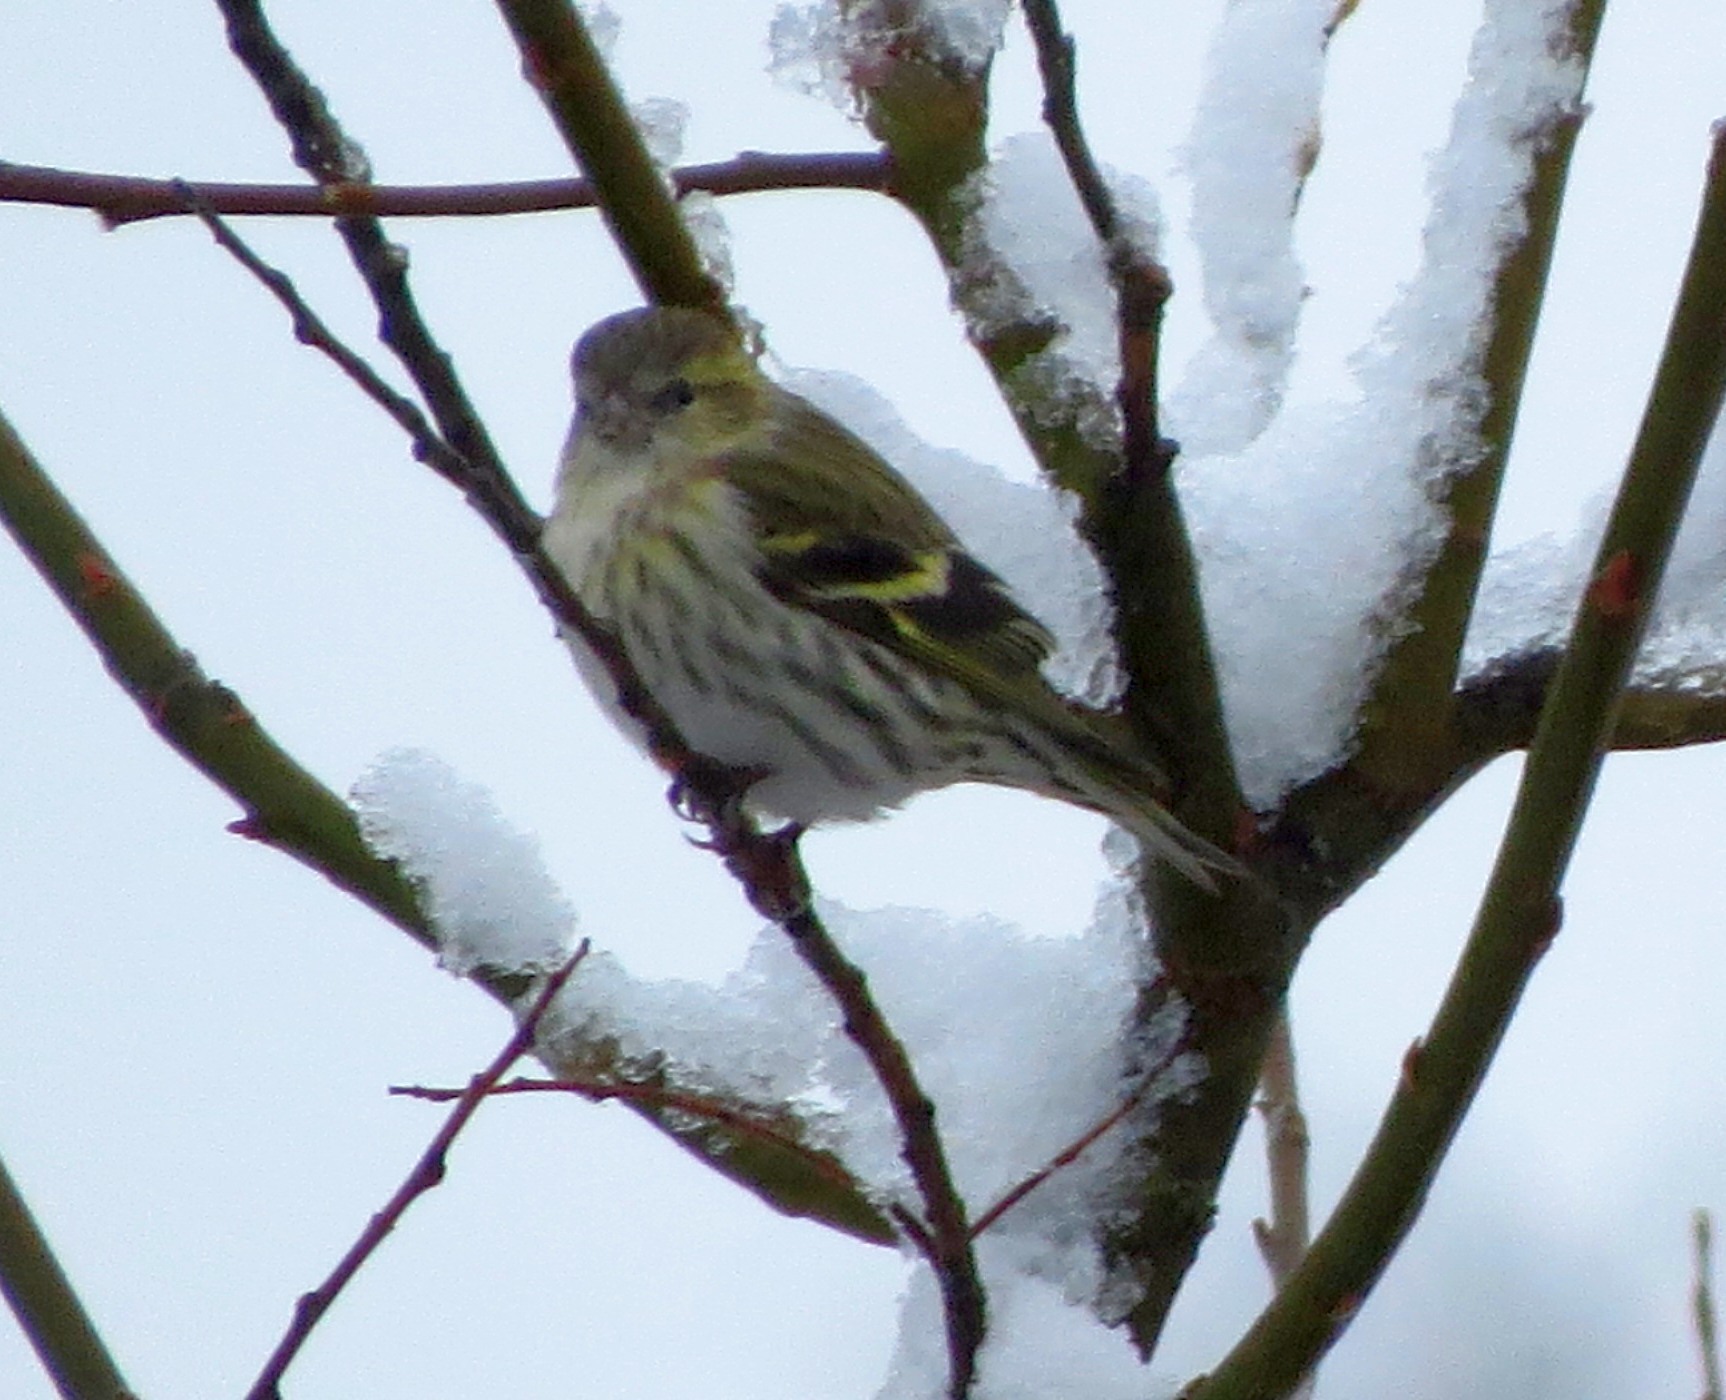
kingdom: Animalia
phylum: Chordata
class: Aves
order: Passeriformes
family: Fringillidae
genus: Spinus
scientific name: Spinus spinus
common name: Eurasian siskin
